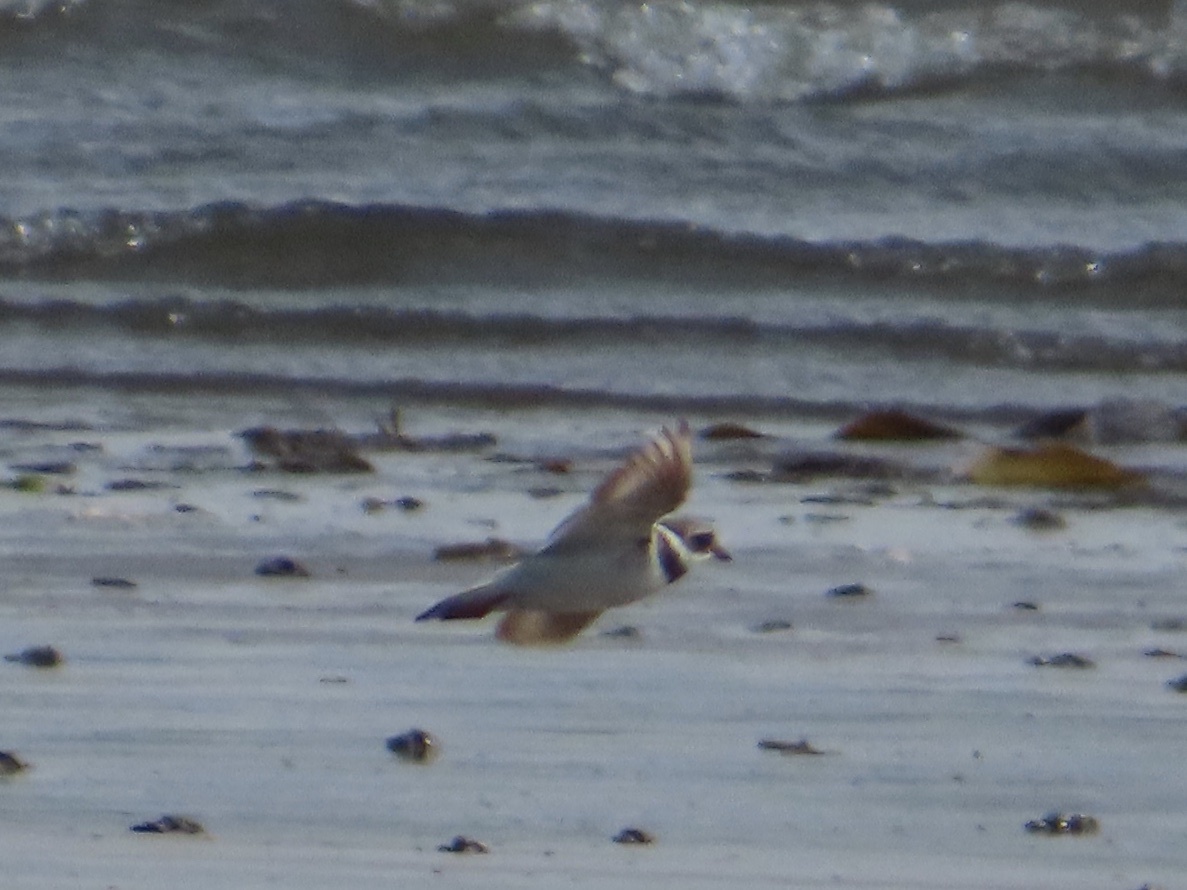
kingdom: Animalia
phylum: Chordata
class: Aves
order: Charadriiformes
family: Charadriidae
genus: Charadrius
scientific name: Charadrius hiaticula
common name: Common ringed plover
